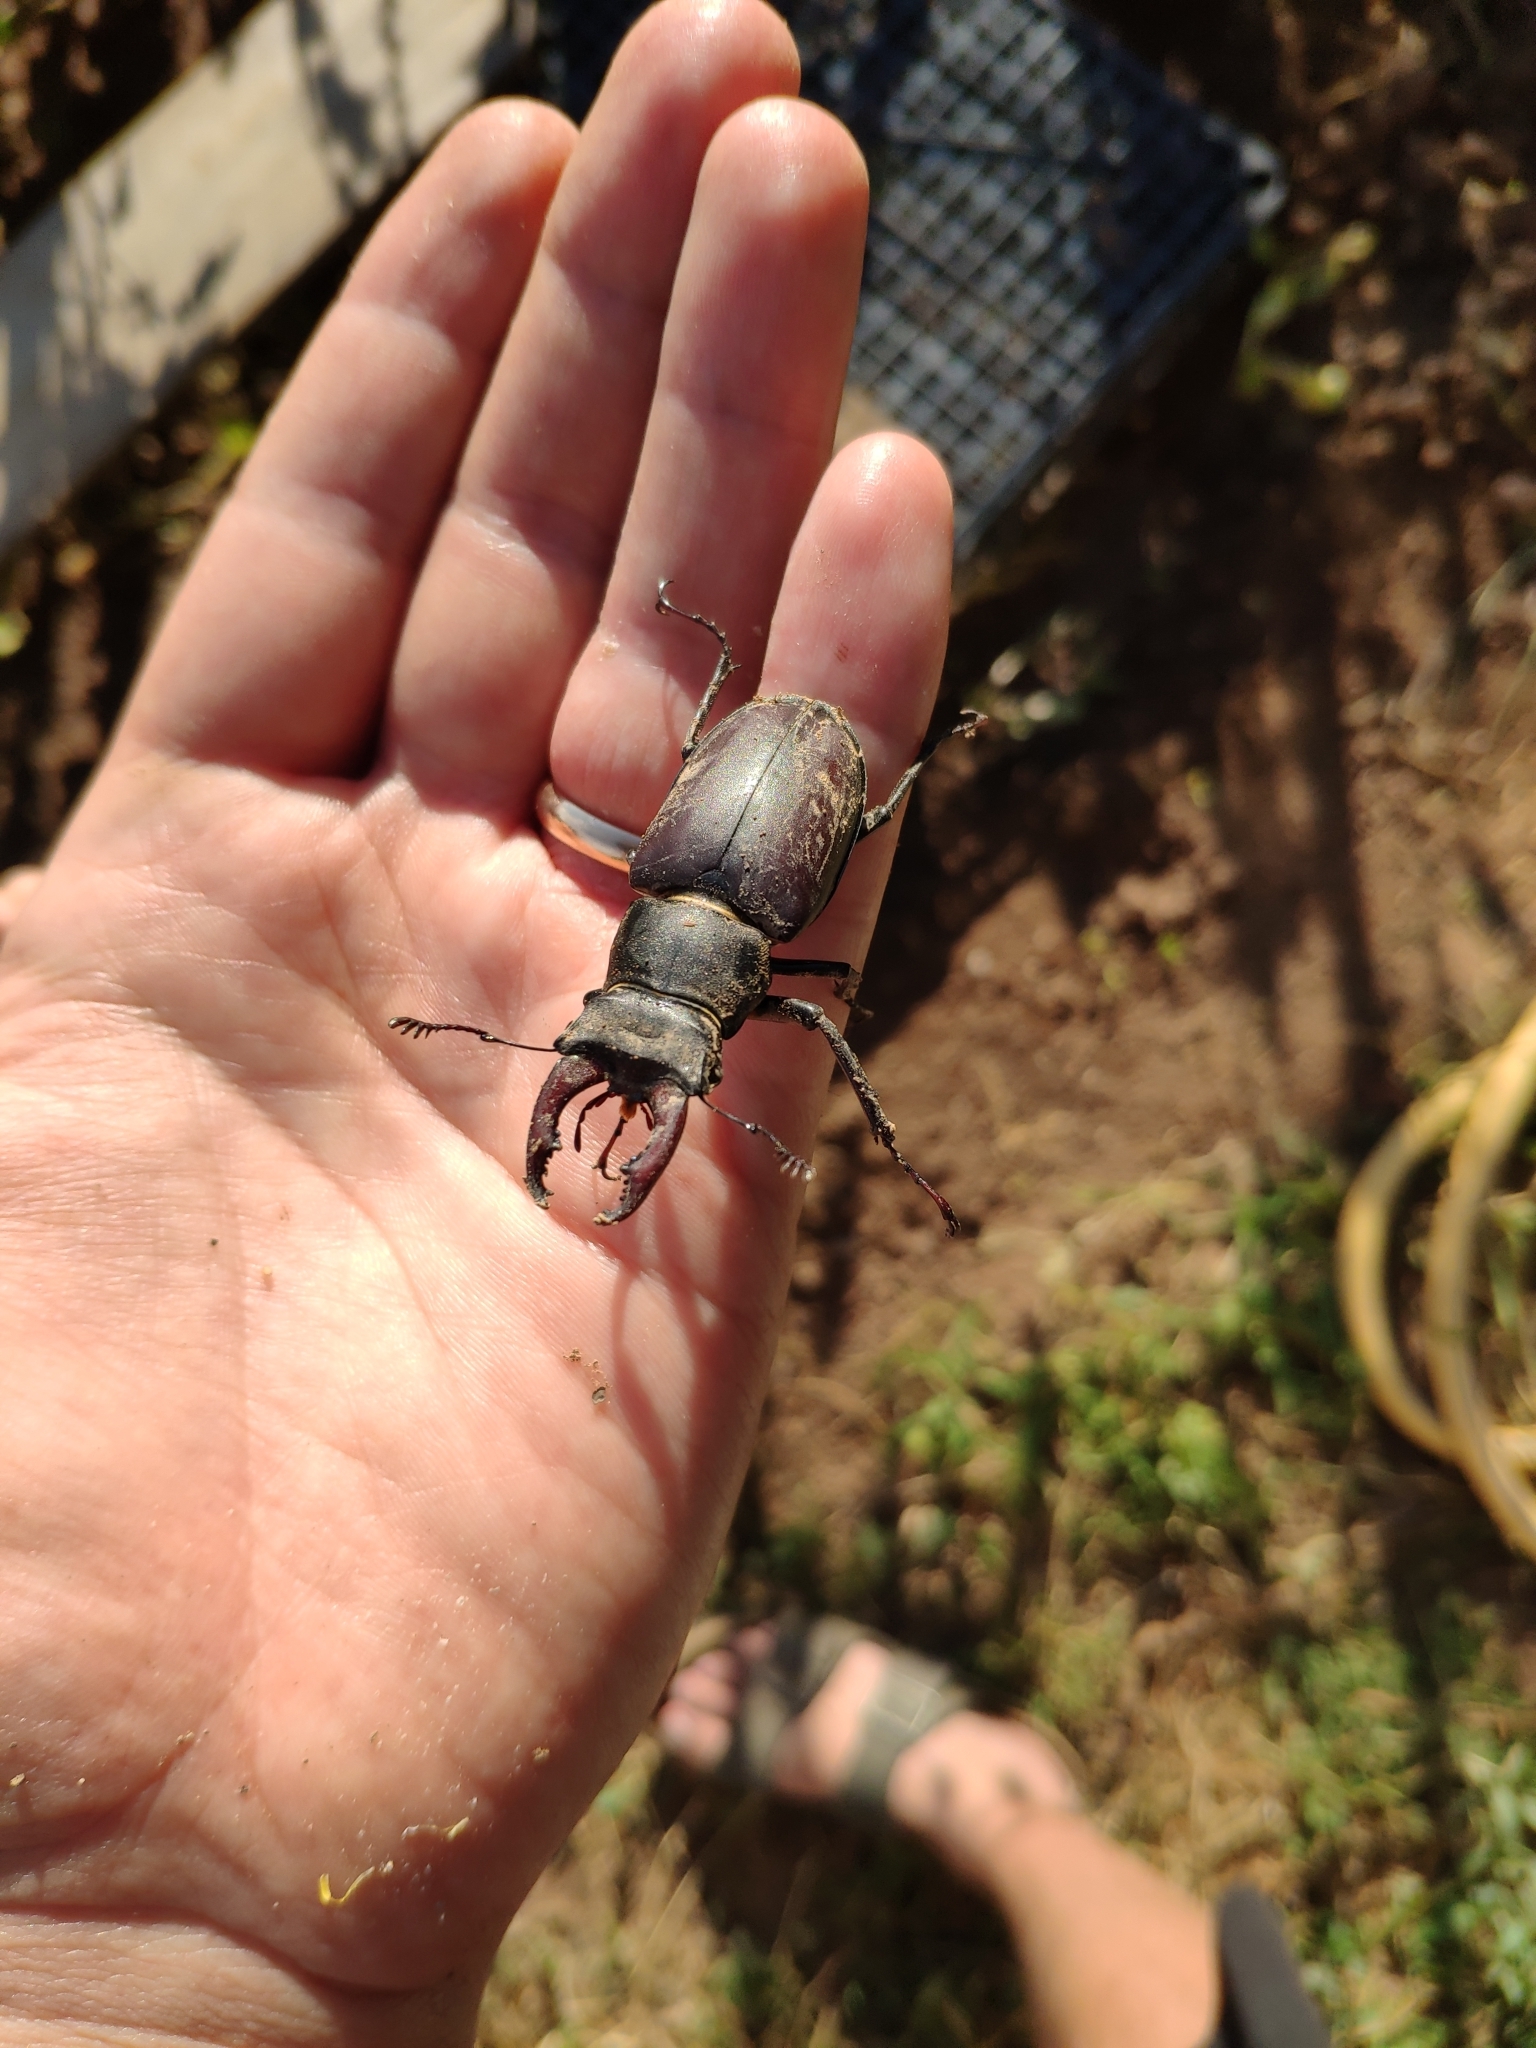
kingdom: Animalia
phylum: Arthropoda
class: Insecta
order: Coleoptera
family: Lucanidae
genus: Lucanus
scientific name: Lucanus cervus
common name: Stag beetle
